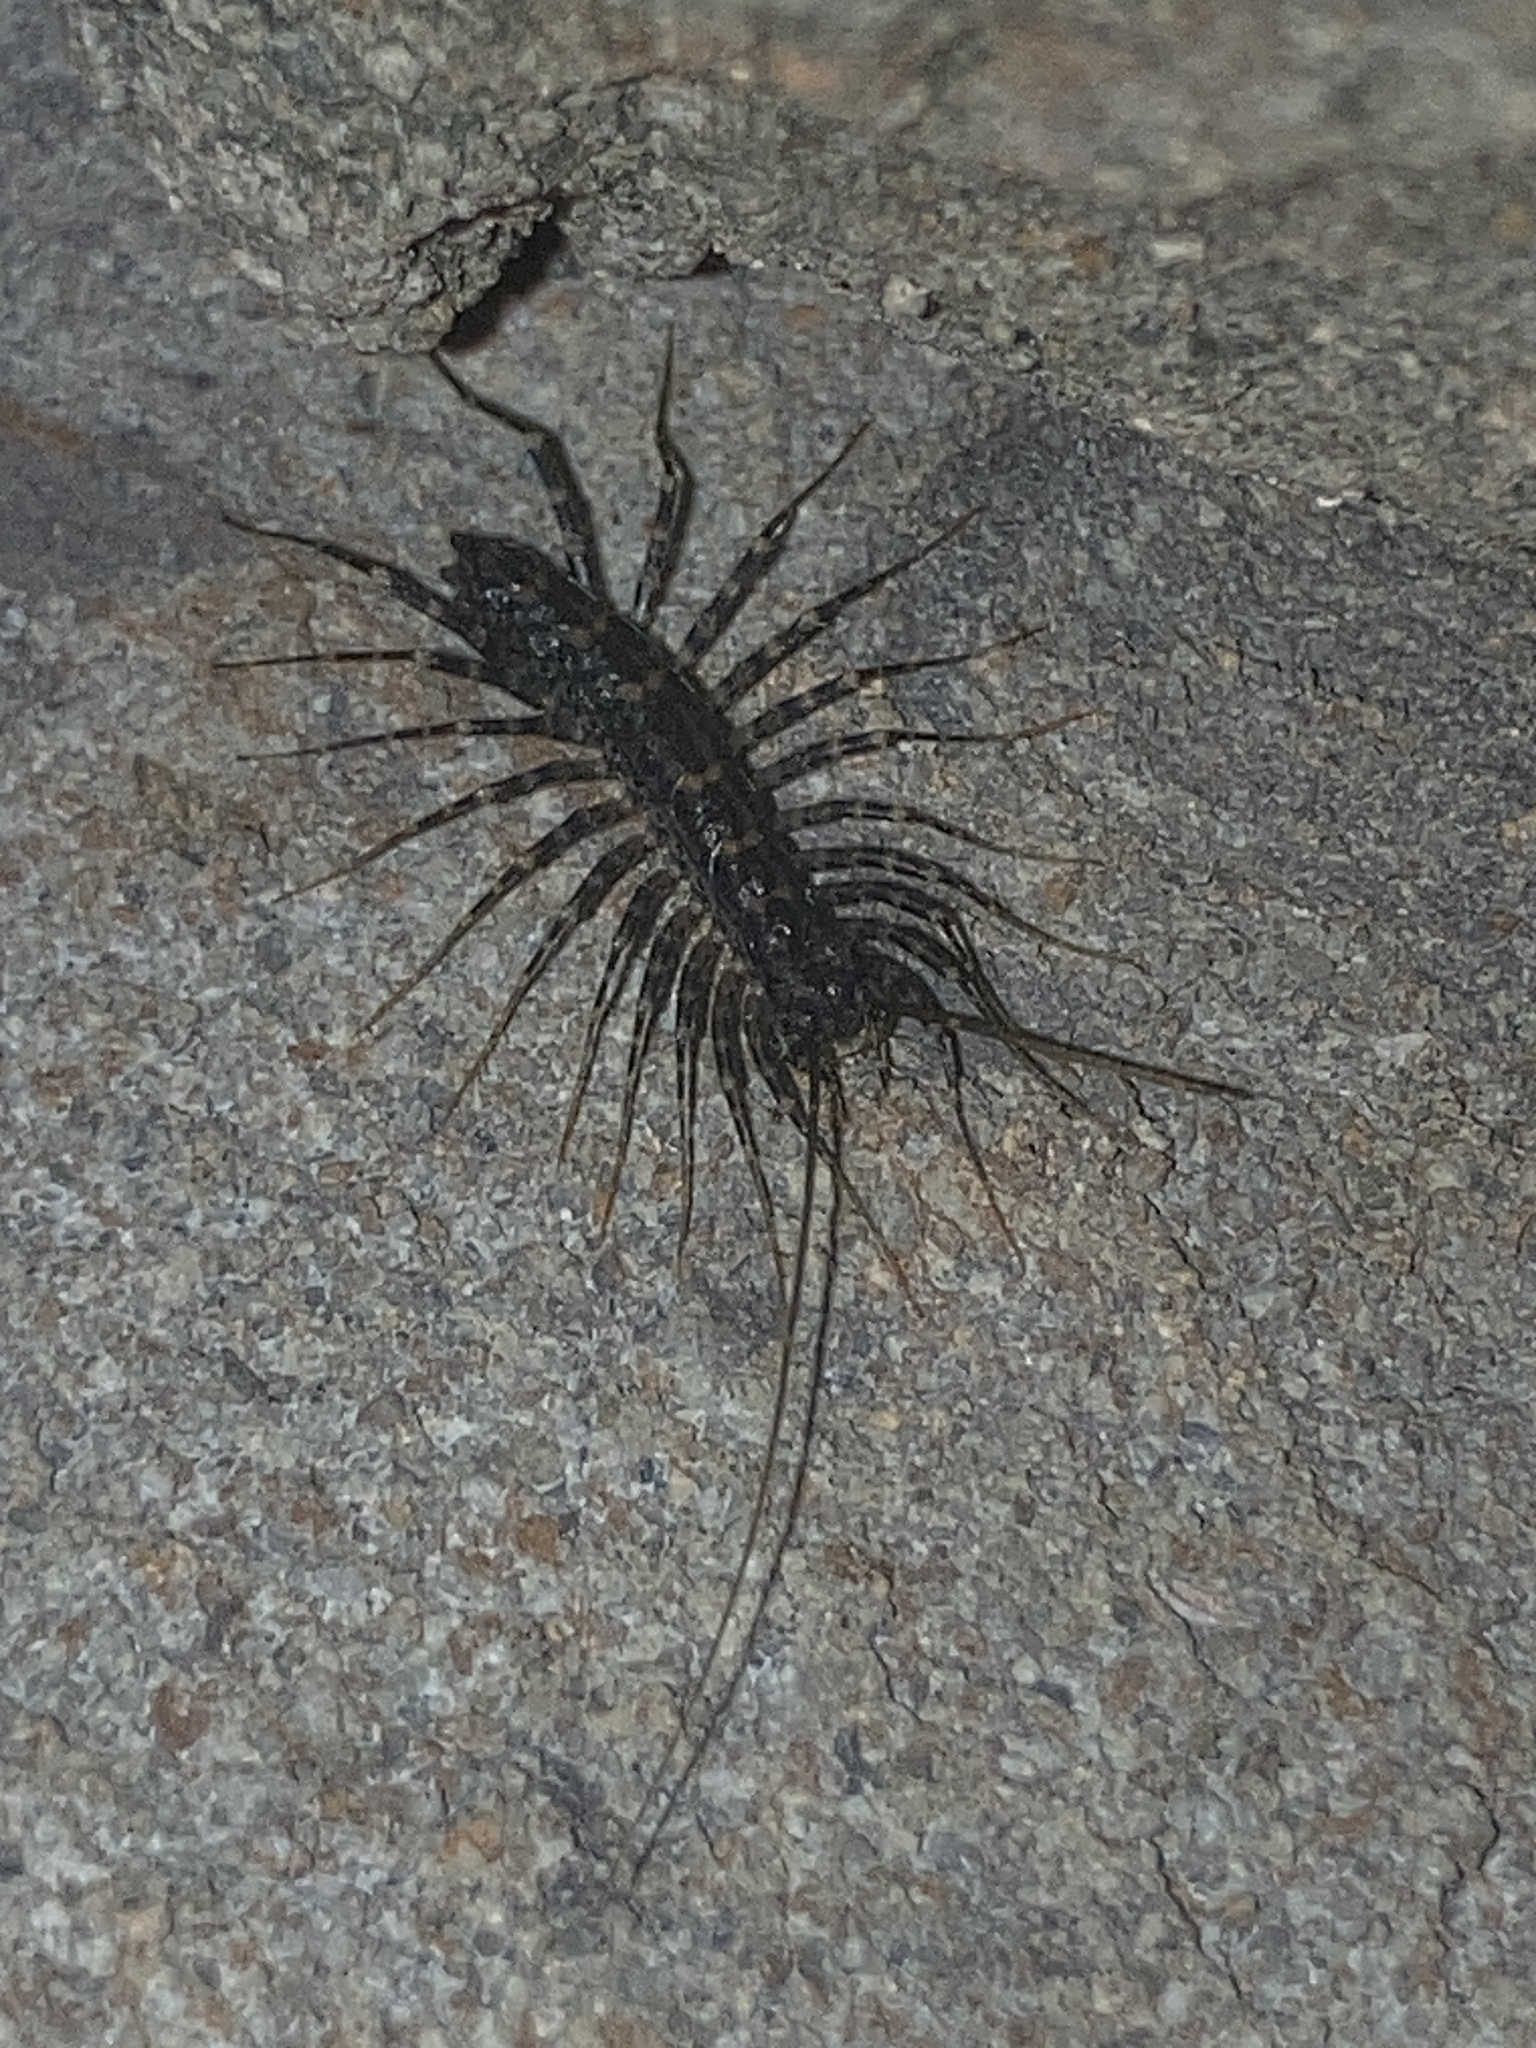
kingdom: Animalia
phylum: Arthropoda
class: Chilopoda
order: Scutigeromorpha
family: Scutigeridae
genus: Allothereua
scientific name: Allothereua maculata
